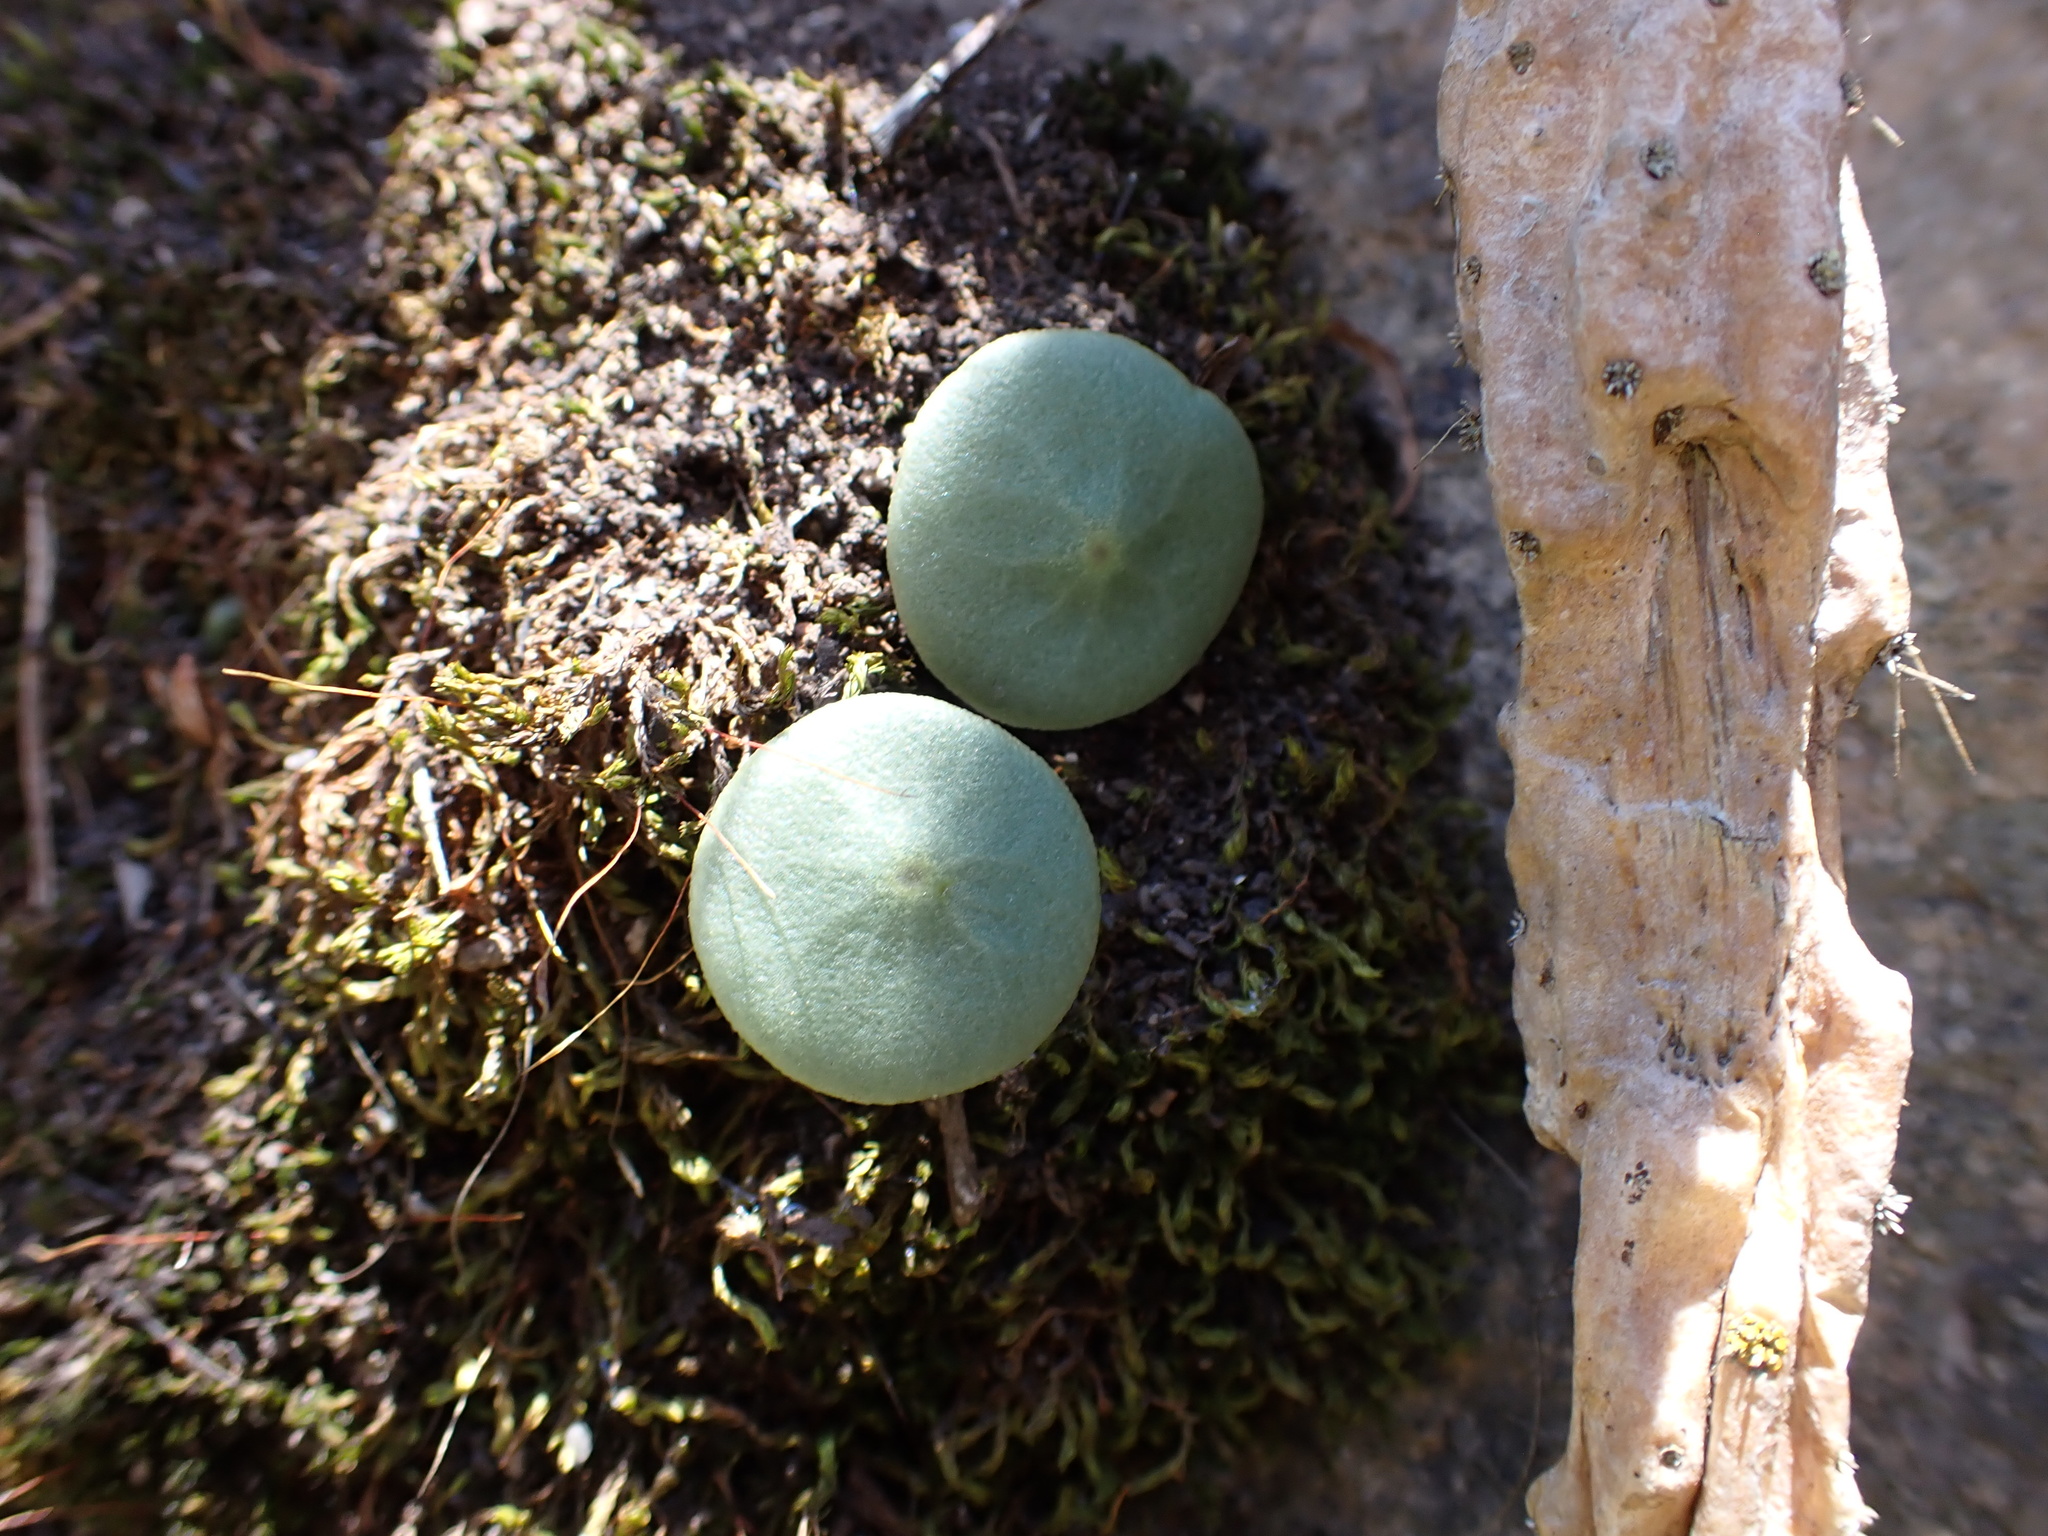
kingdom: Plantae
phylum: Tracheophyta
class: Magnoliopsida
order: Piperales
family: Piperaceae
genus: Peperomia
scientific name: Peperomia polycephala
